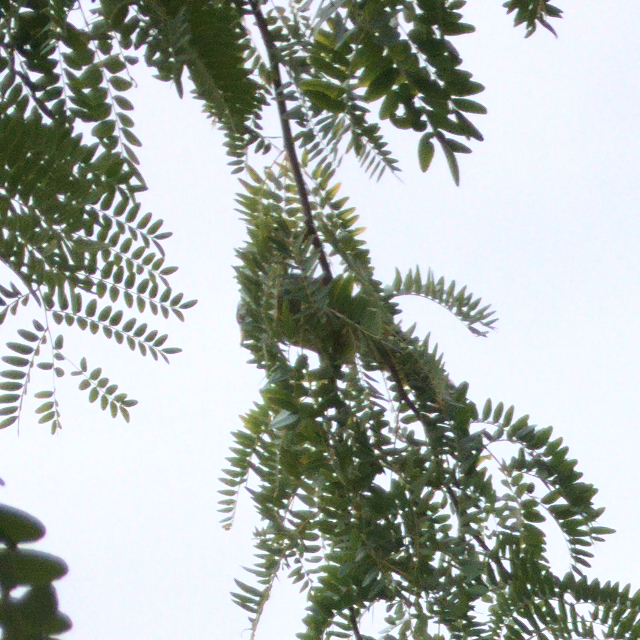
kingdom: Animalia
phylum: Chordata
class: Aves
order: Passeriformes
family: Meliphagidae
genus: Manorina
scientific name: Manorina melanocephala
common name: Noisy miner
